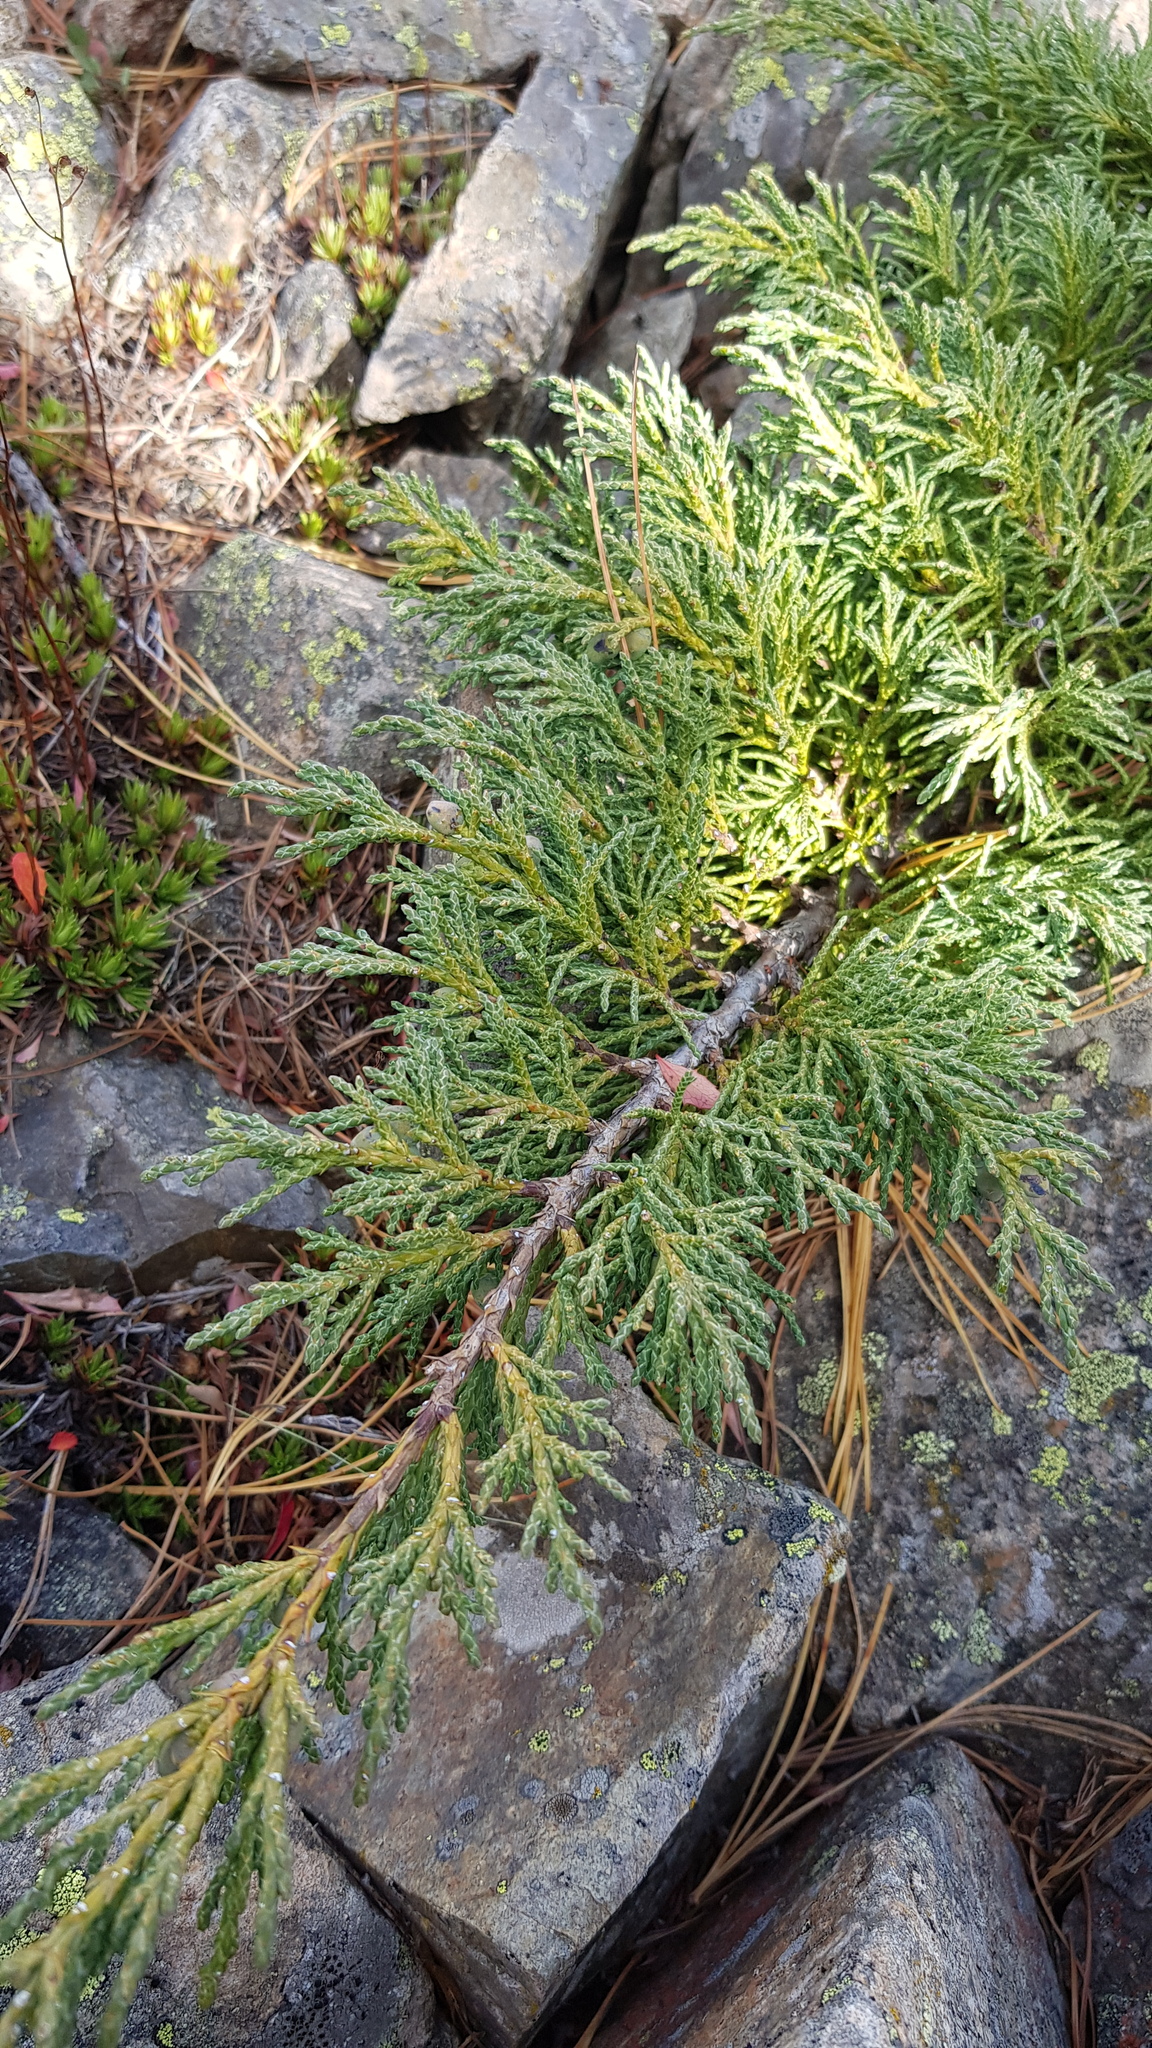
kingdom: Plantae
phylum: Tracheophyta
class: Pinopsida
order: Pinales
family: Cupressaceae
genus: Juniperus
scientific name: Juniperus pseudosabina
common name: Turkestan juniper
